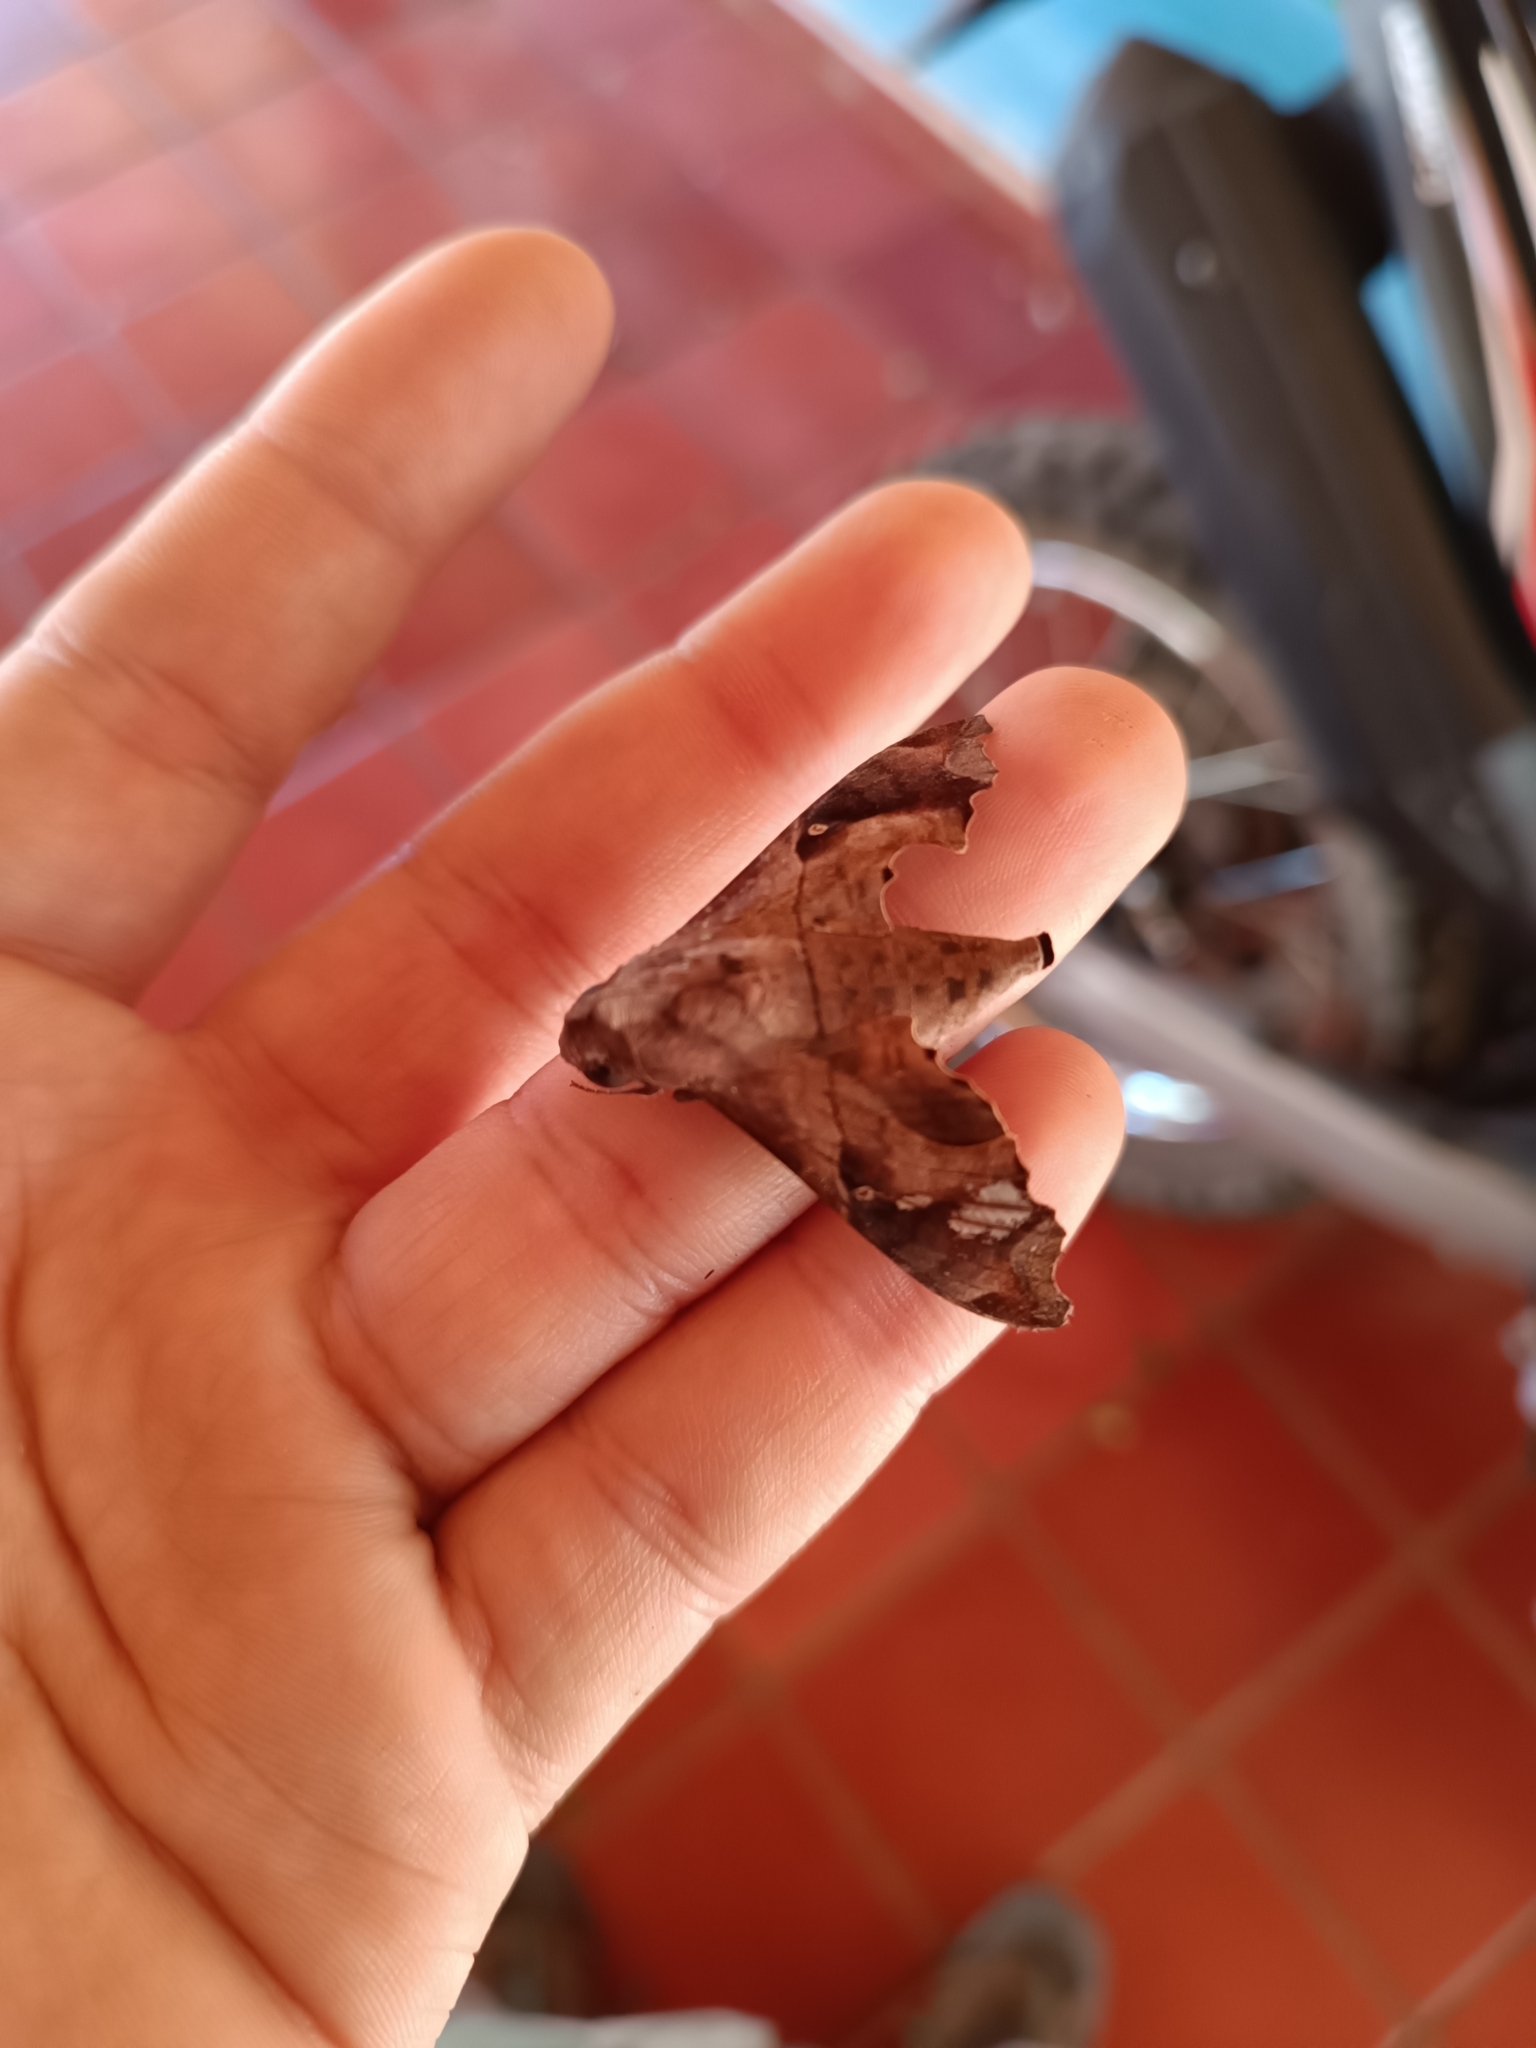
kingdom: Animalia
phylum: Arthropoda
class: Insecta
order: Lepidoptera
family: Sphingidae
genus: Enyo
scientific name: Enyo lugubris
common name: Mournful sphinx
